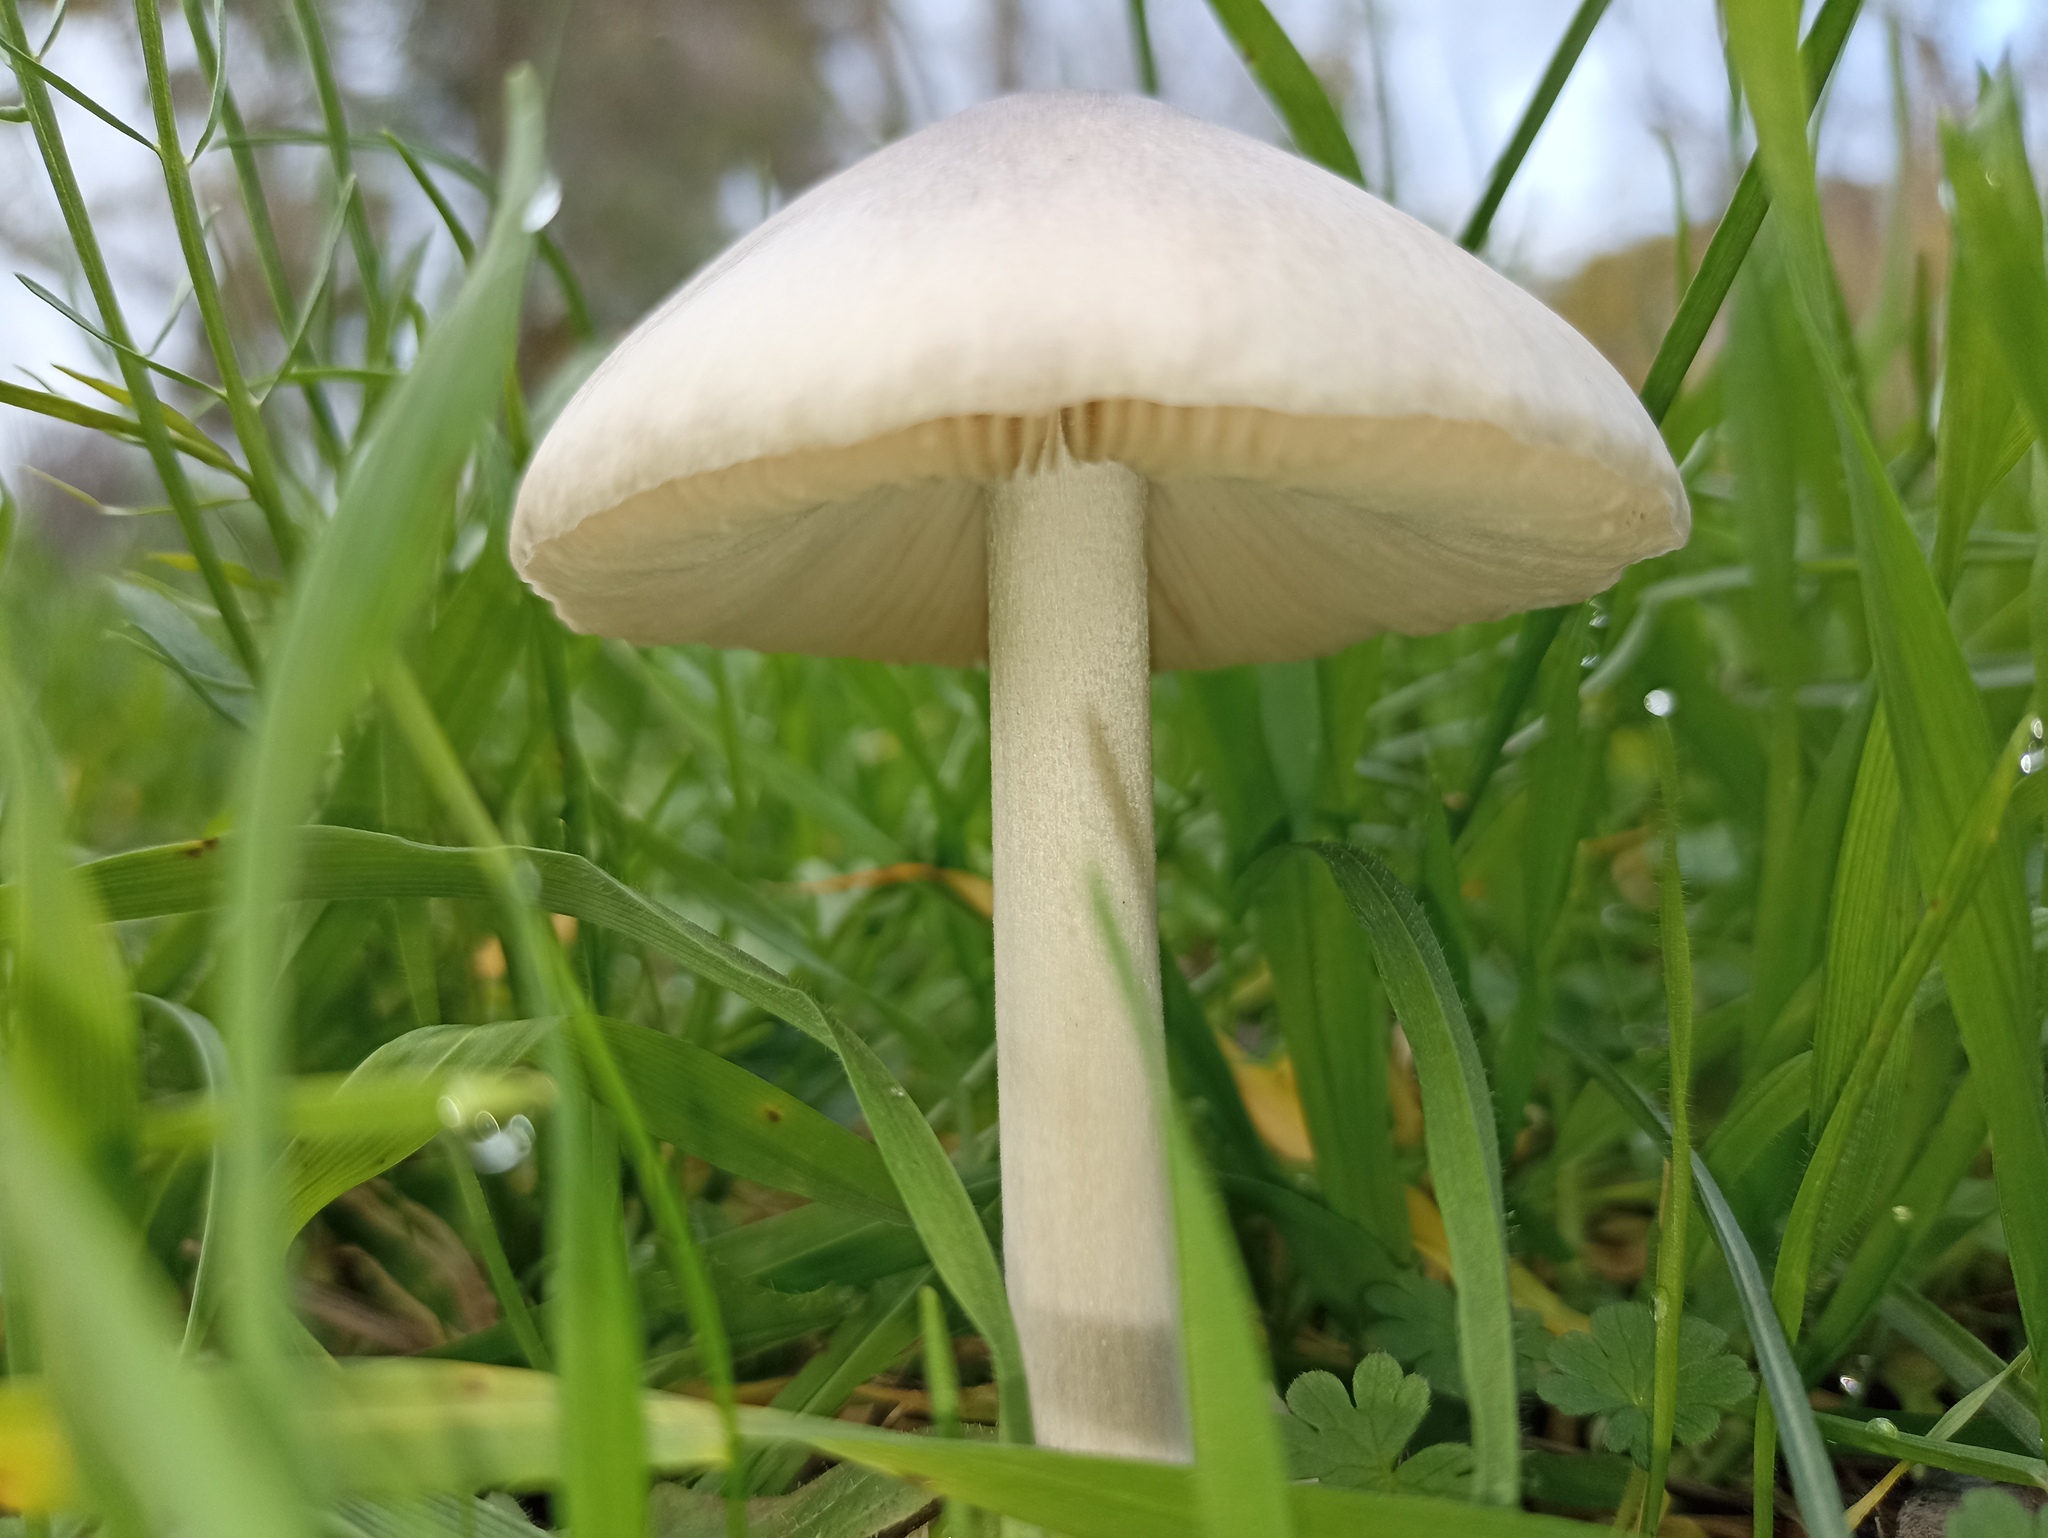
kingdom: Fungi
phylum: Basidiomycota
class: Agaricomycetes
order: Agaricales
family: Pluteaceae
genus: Volvopluteus
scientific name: Volvopluteus gloiocephalus
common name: Stubble rosegill
